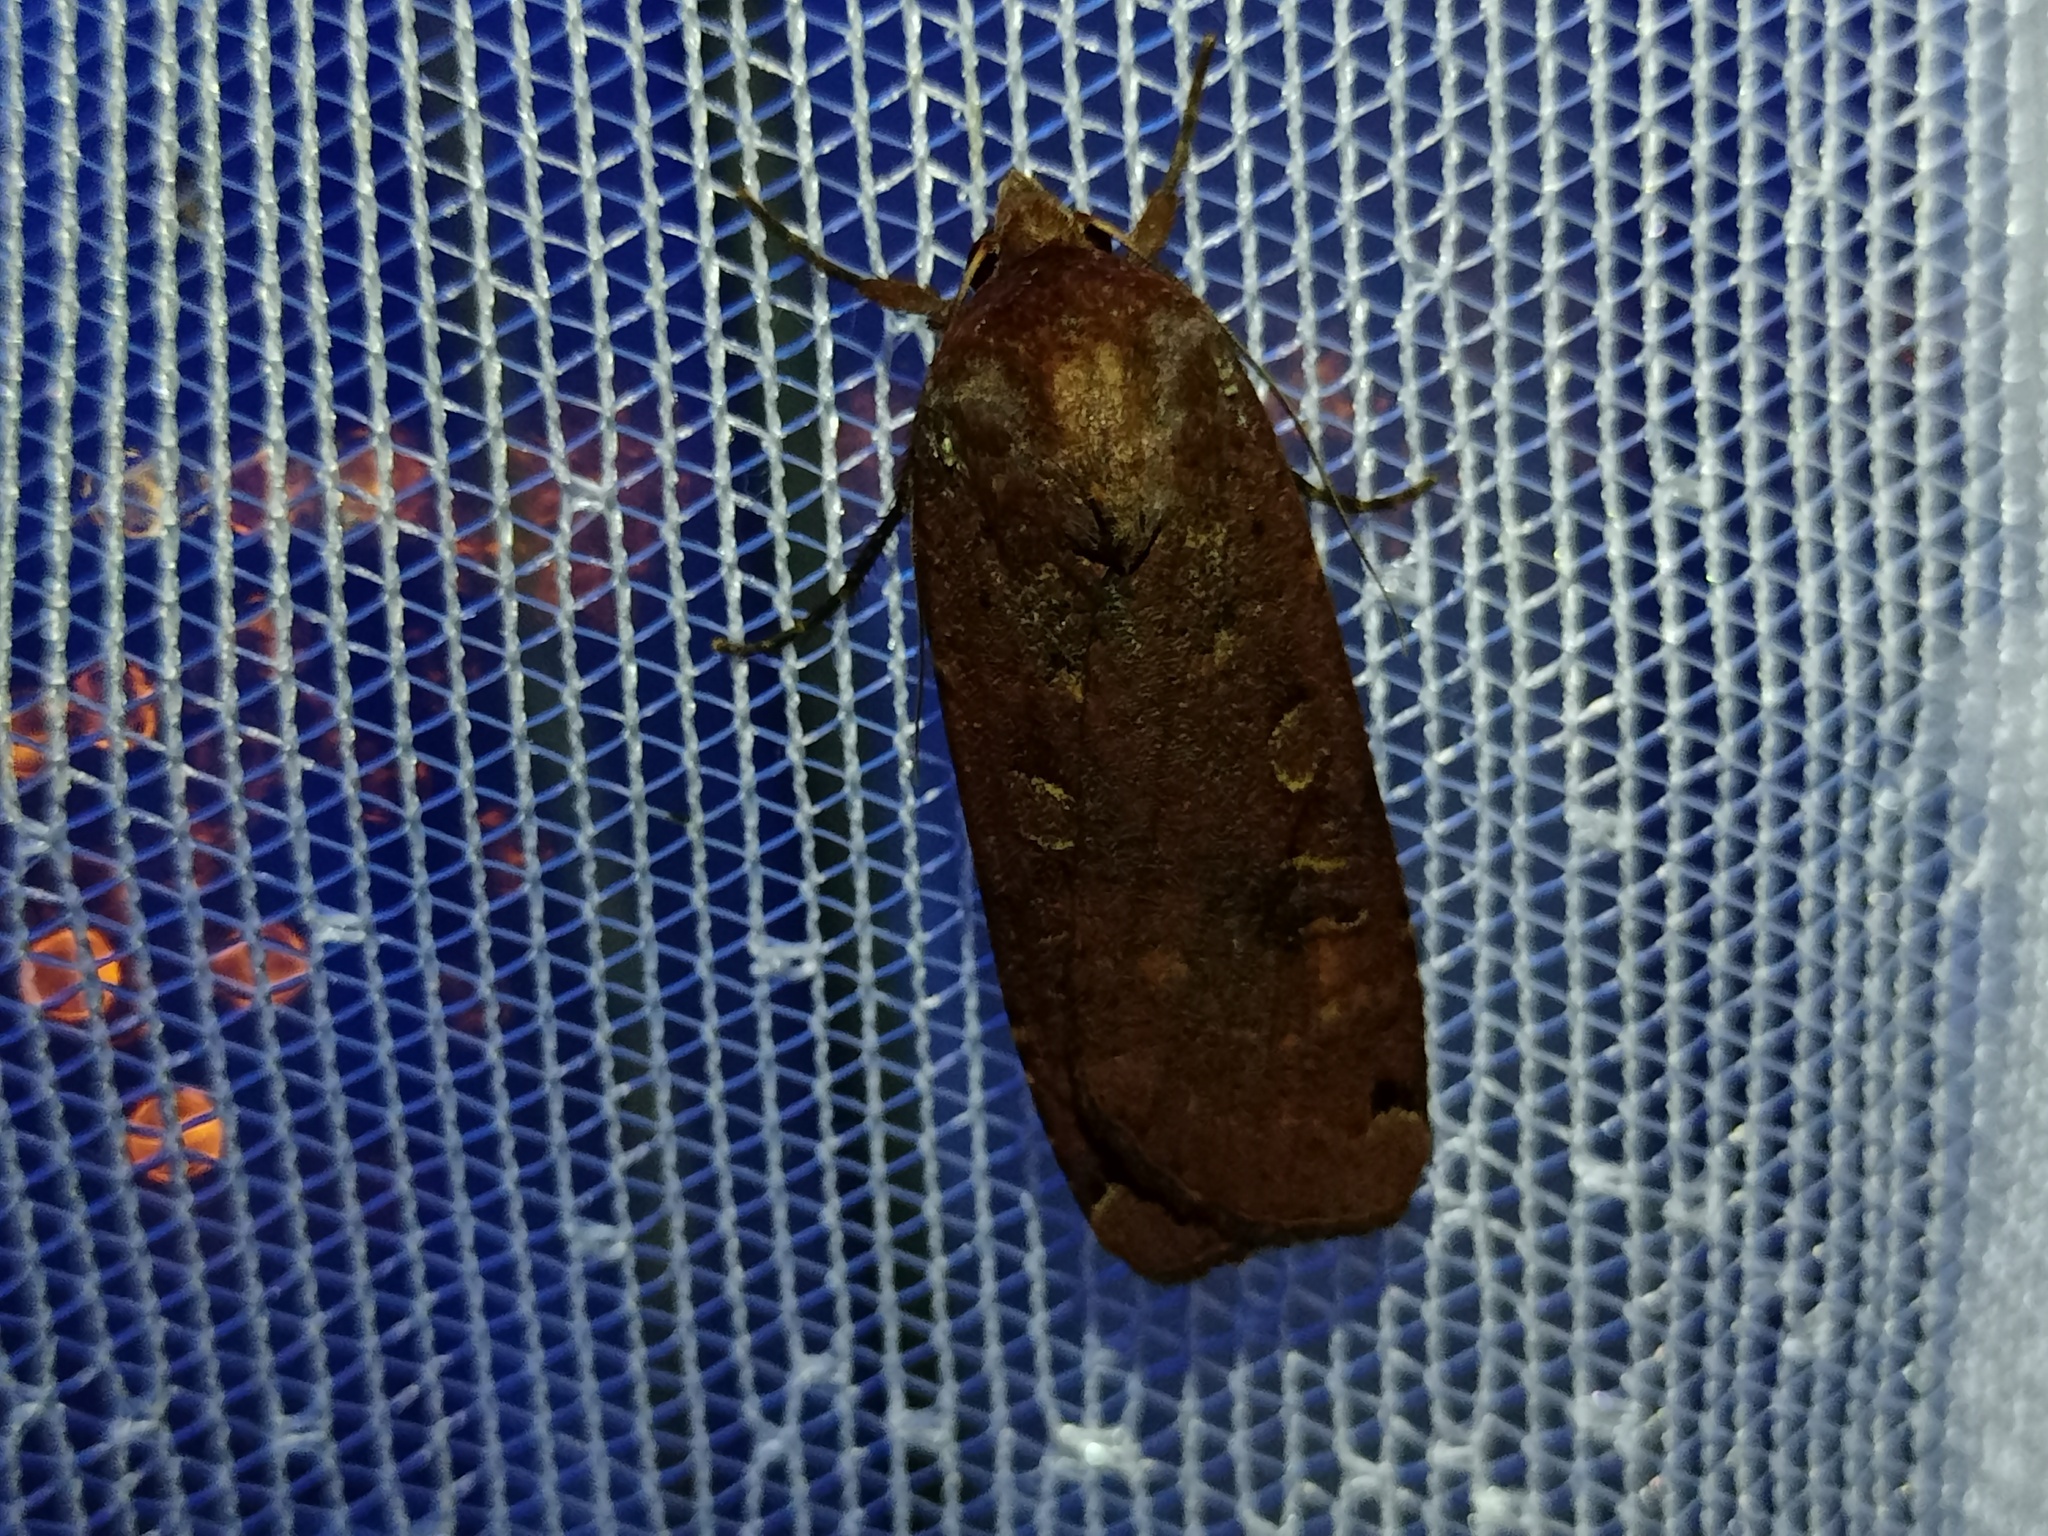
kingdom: Animalia
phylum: Arthropoda
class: Insecta
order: Lepidoptera
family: Noctuidae
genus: Noctua
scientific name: Noctua pronuba
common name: Large yellow underwing
